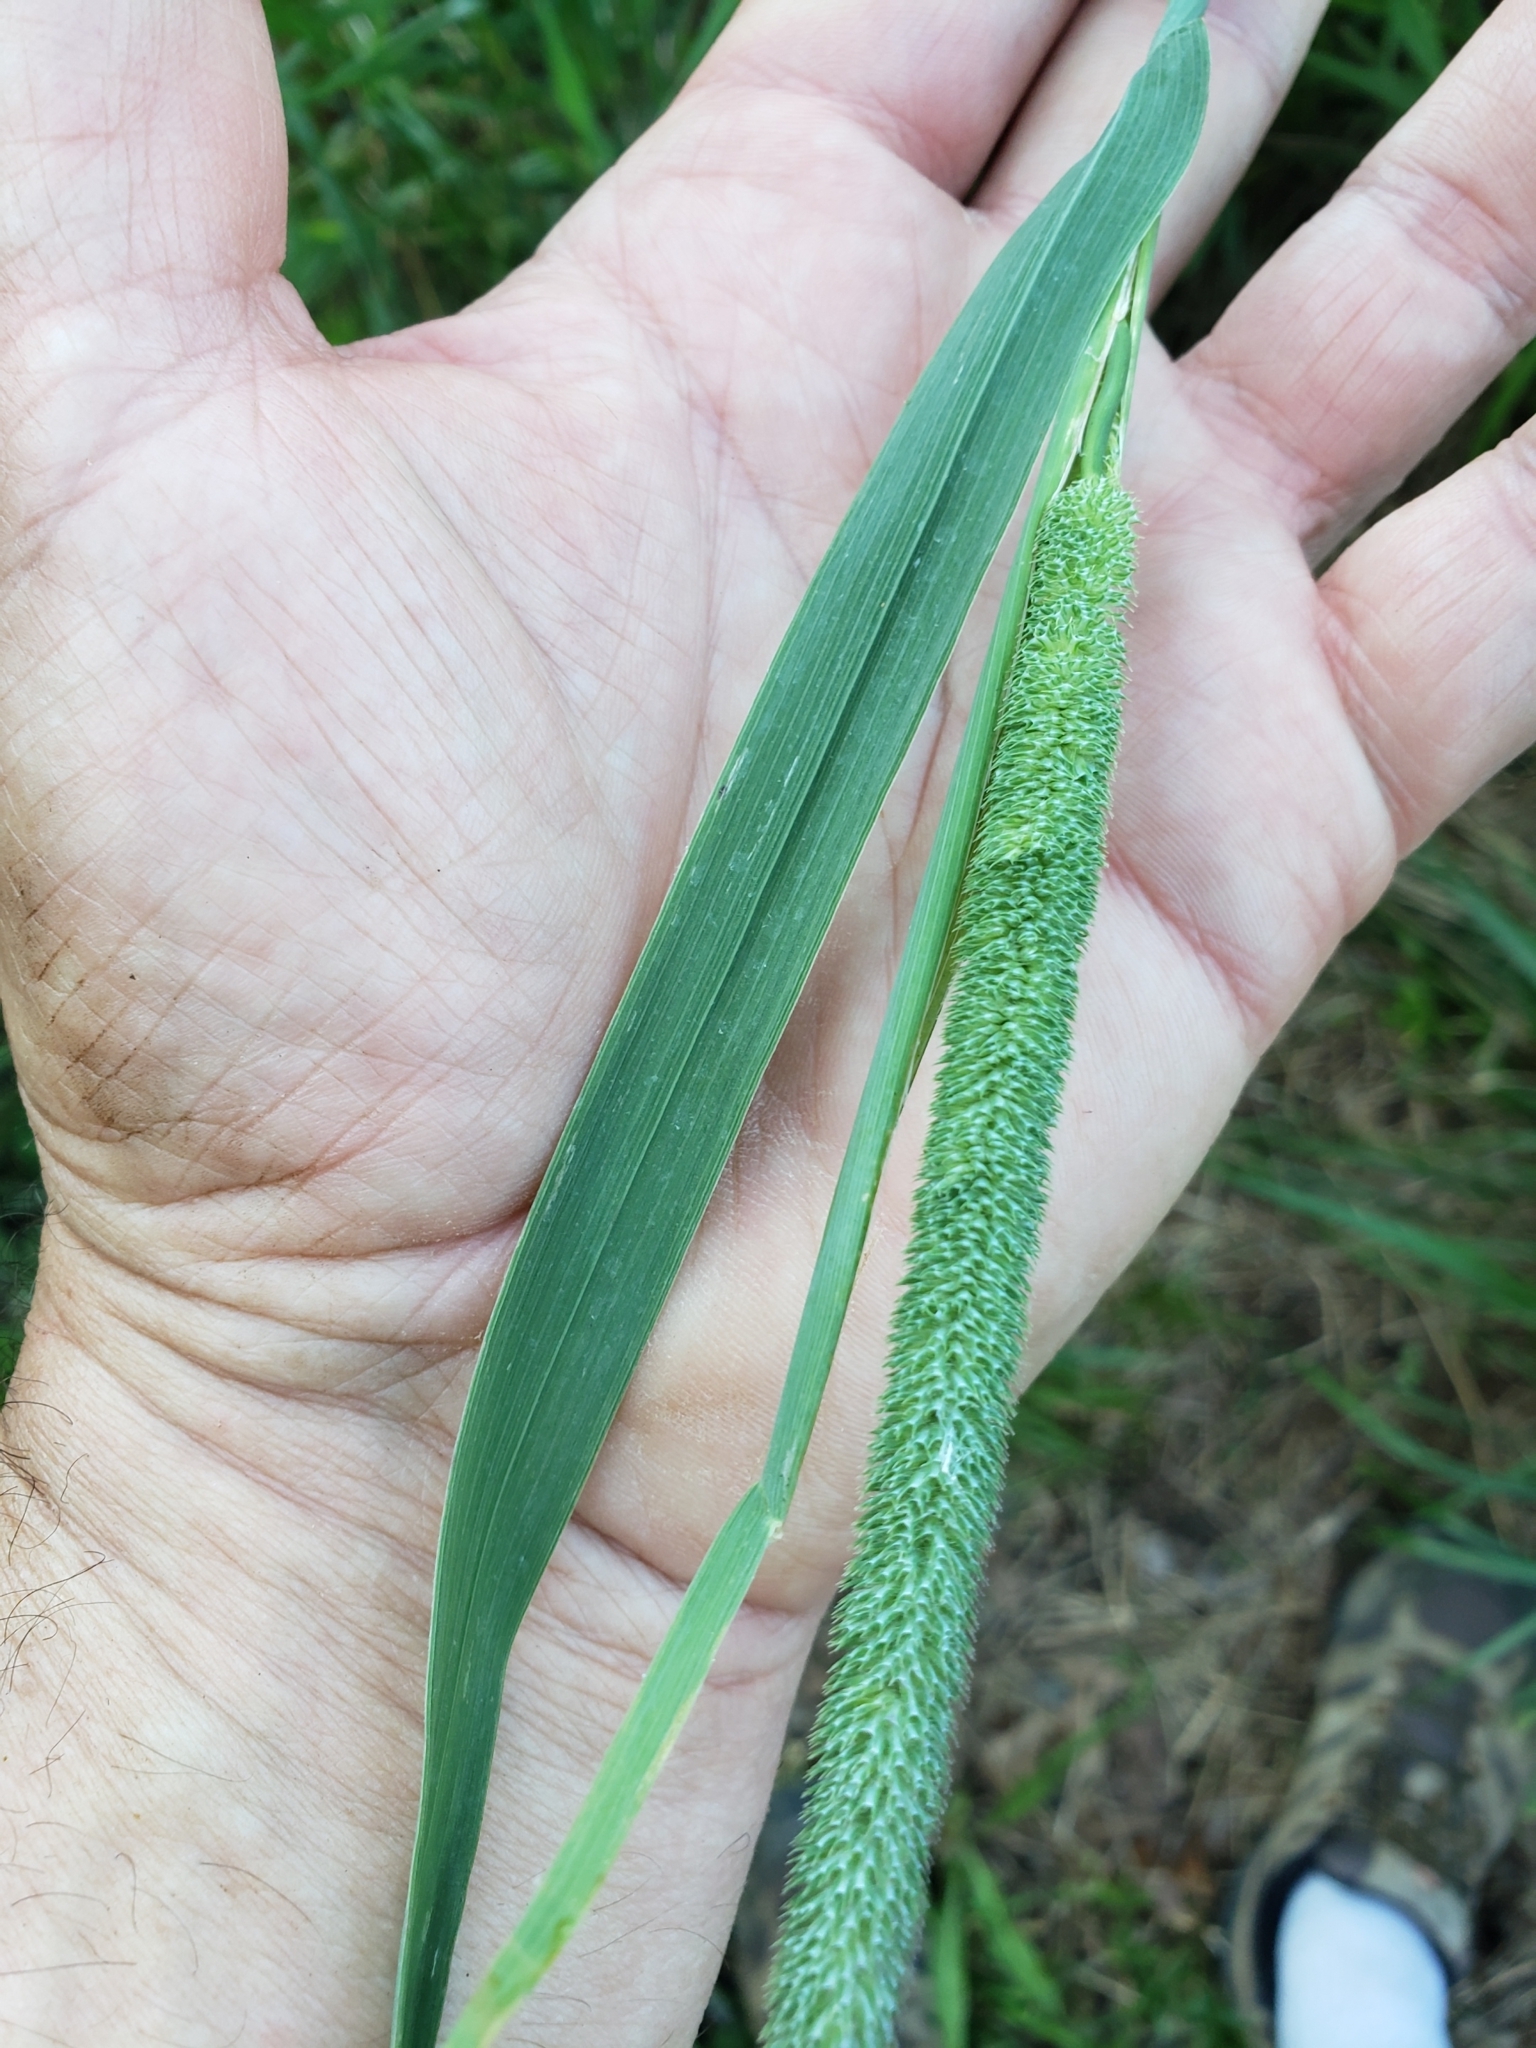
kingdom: Plantae
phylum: Tracheophyta
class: Liliopsida
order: Poales
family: Poaceae
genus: Phleum
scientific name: Phleum pratense
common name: Timothy grass
